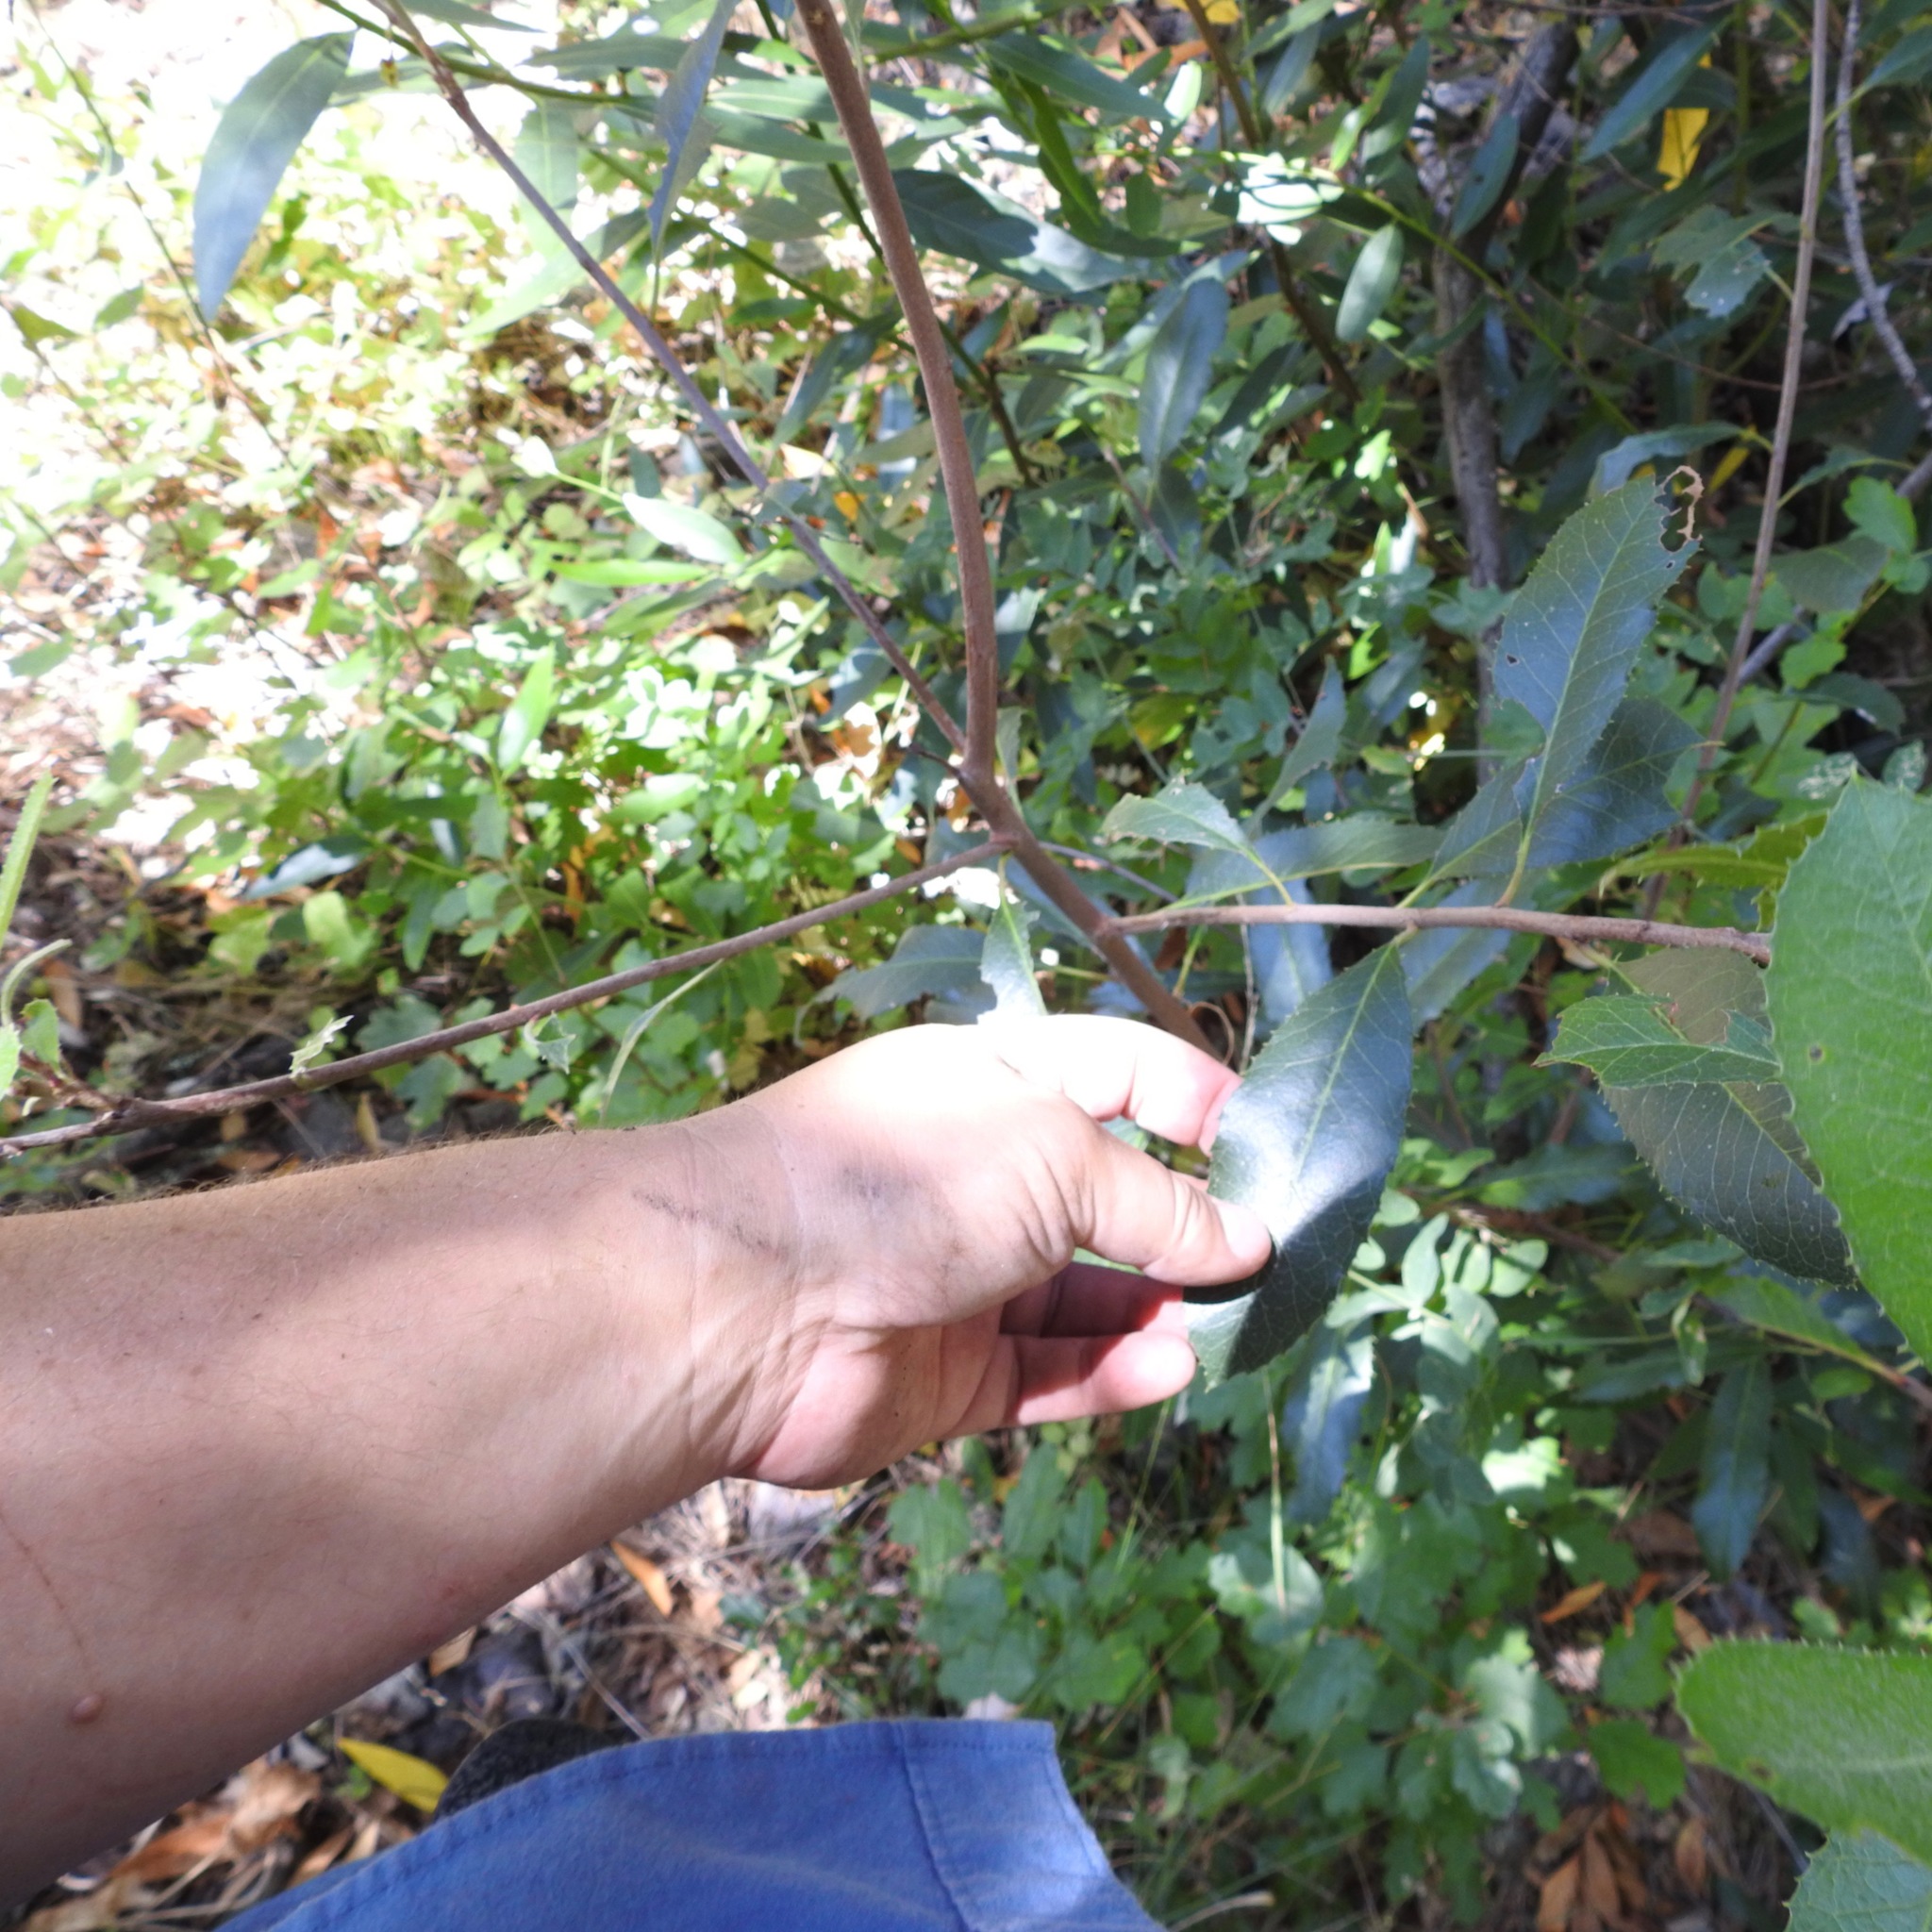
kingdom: Plantae
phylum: Tracheophyta
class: Magnoliopsida
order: Rosales
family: Rosaceae
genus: Heteromeles
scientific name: Heteromeles arbutifolia
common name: California-holly
